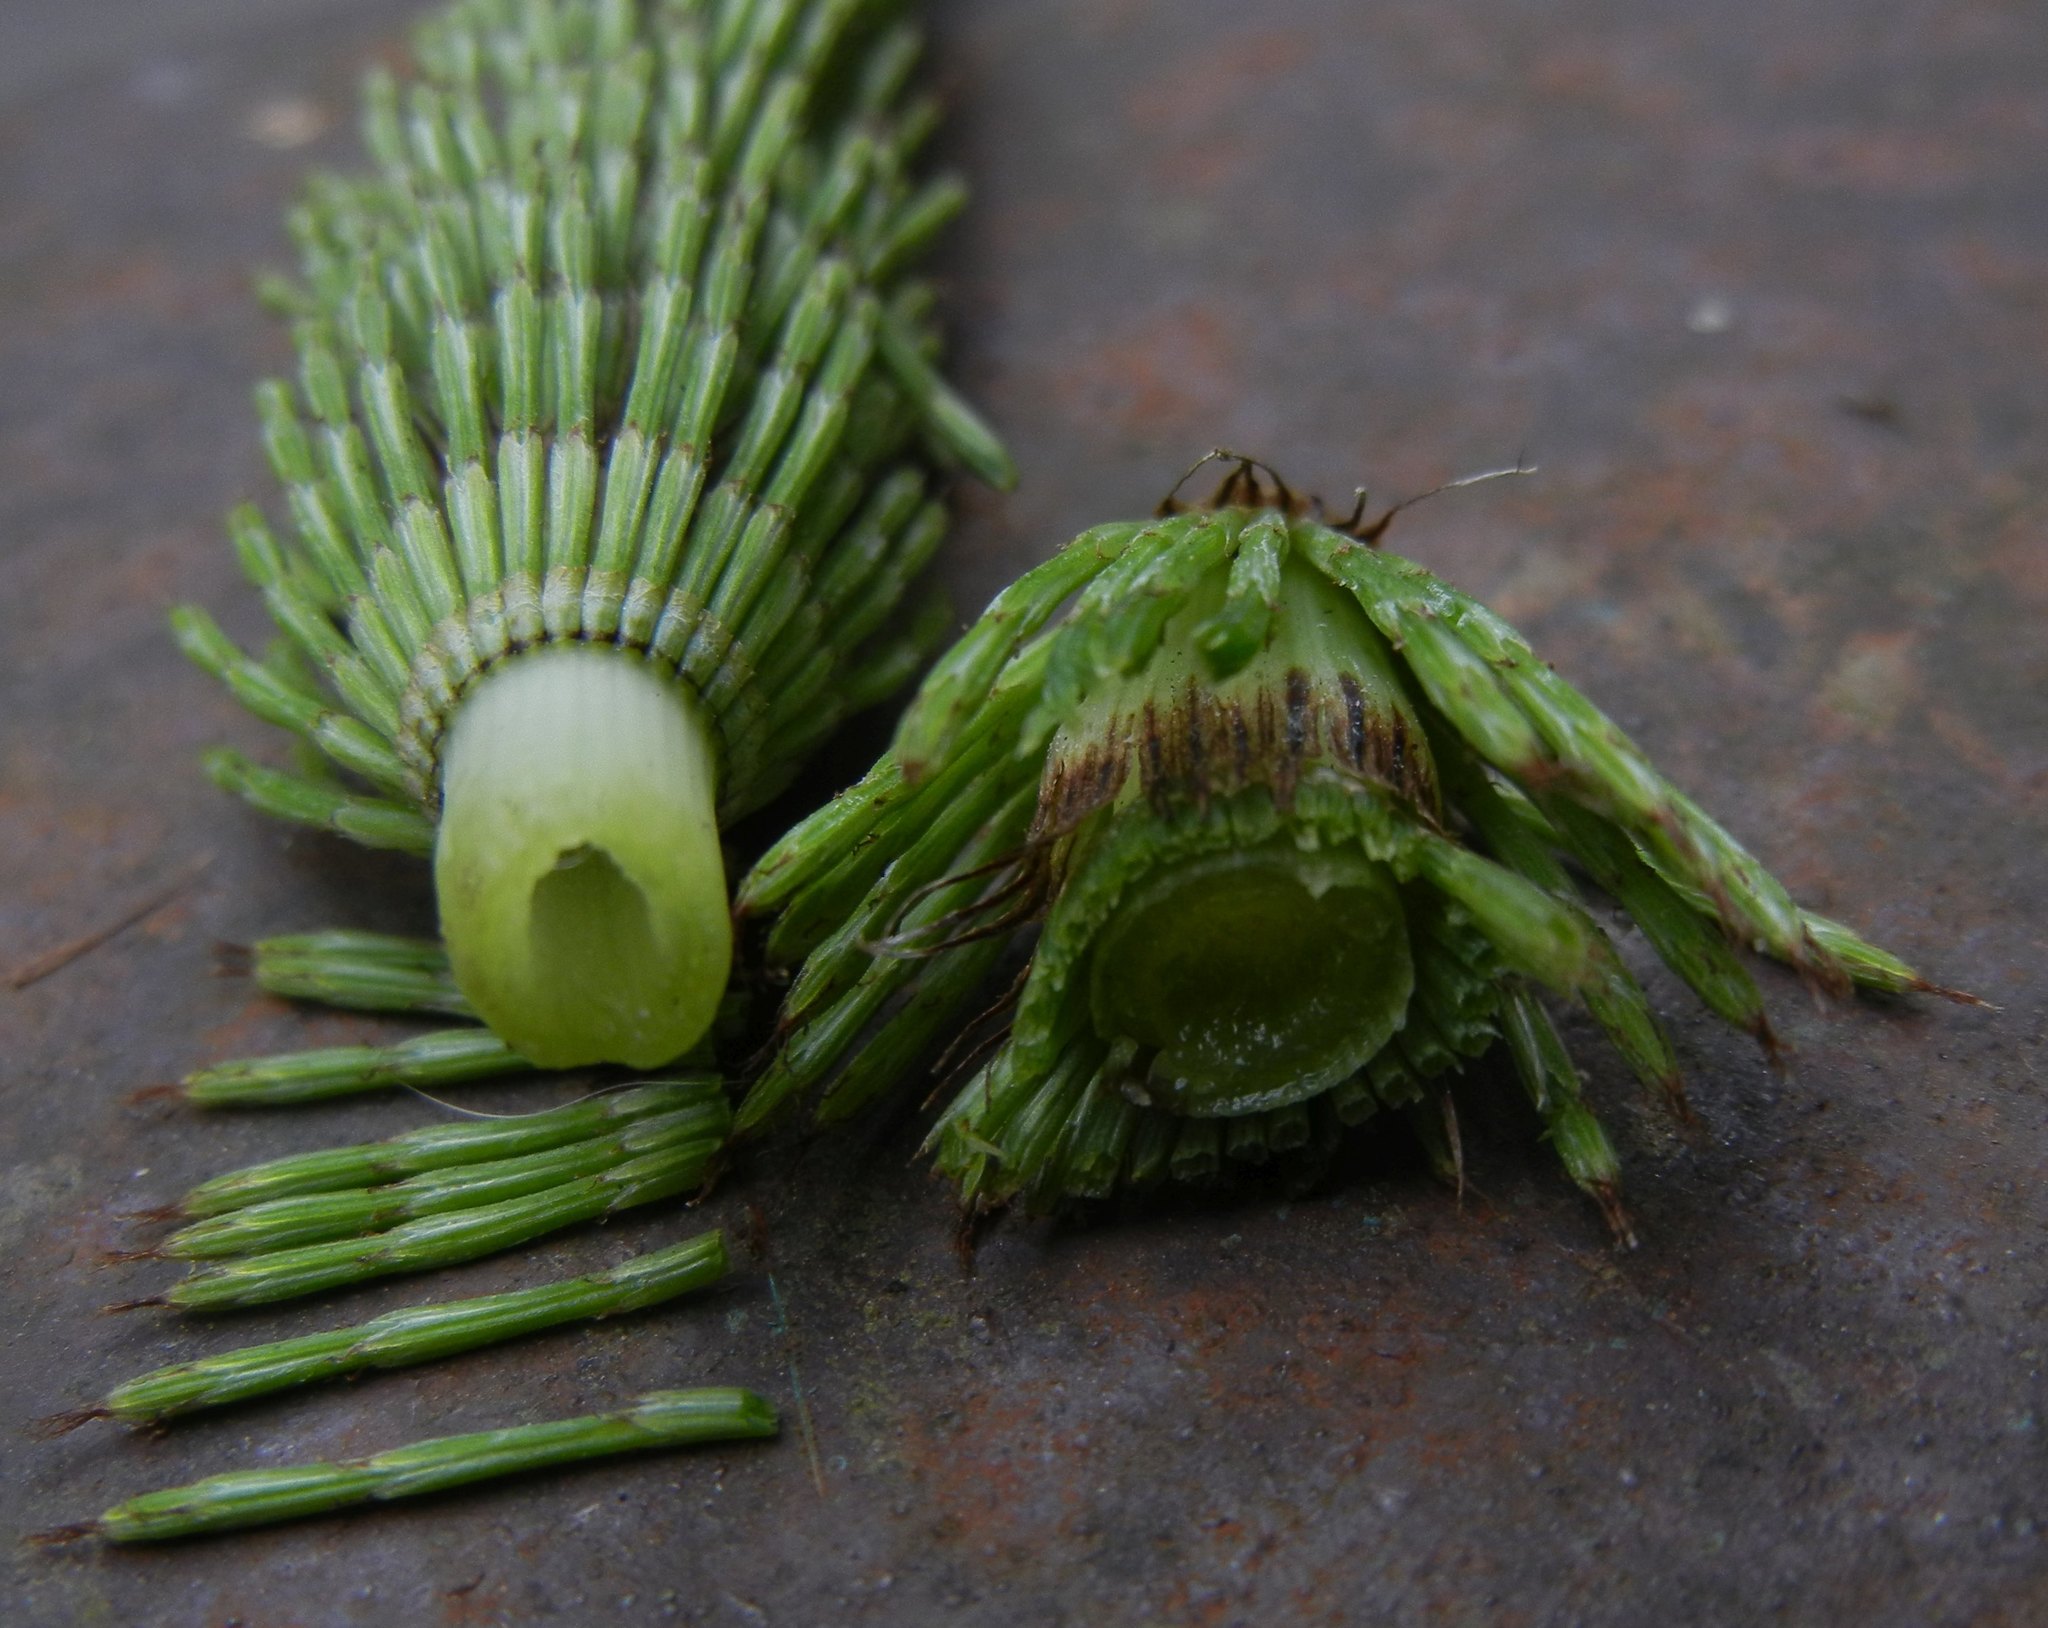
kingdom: Plantae
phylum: Tracheophyta
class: Polypodiopsida
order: Equisetales
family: Equisetaceae
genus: Equisetum
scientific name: Equisetum telmateia
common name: Great horsetail
